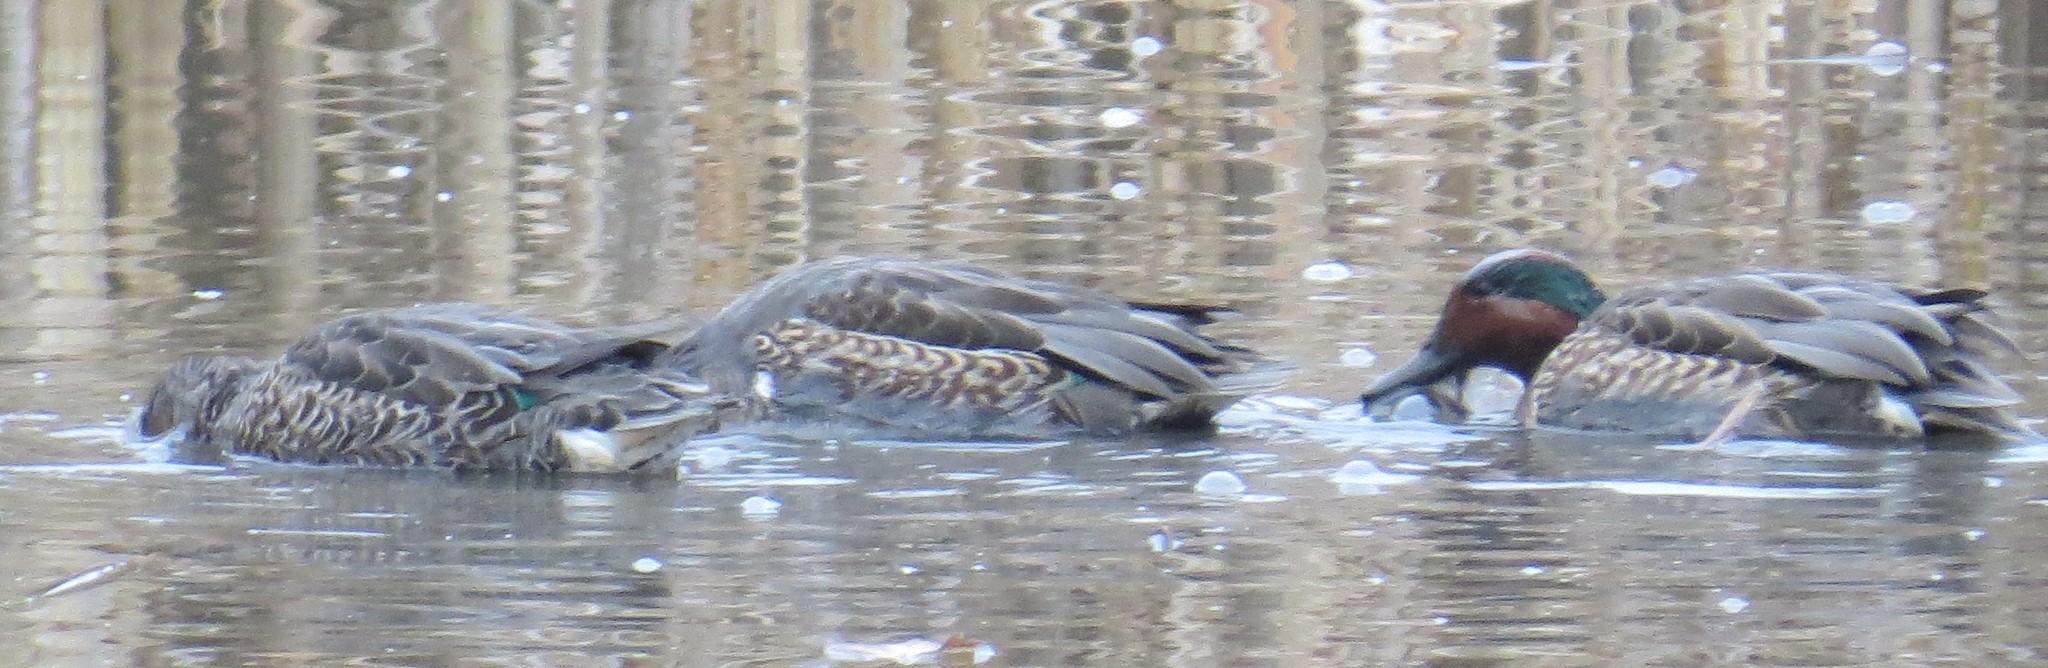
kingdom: Animalia
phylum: Chordata
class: Aves
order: Anseriformes
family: Anatidae
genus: Anas
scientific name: Anas crecca
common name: Eurasian teal
